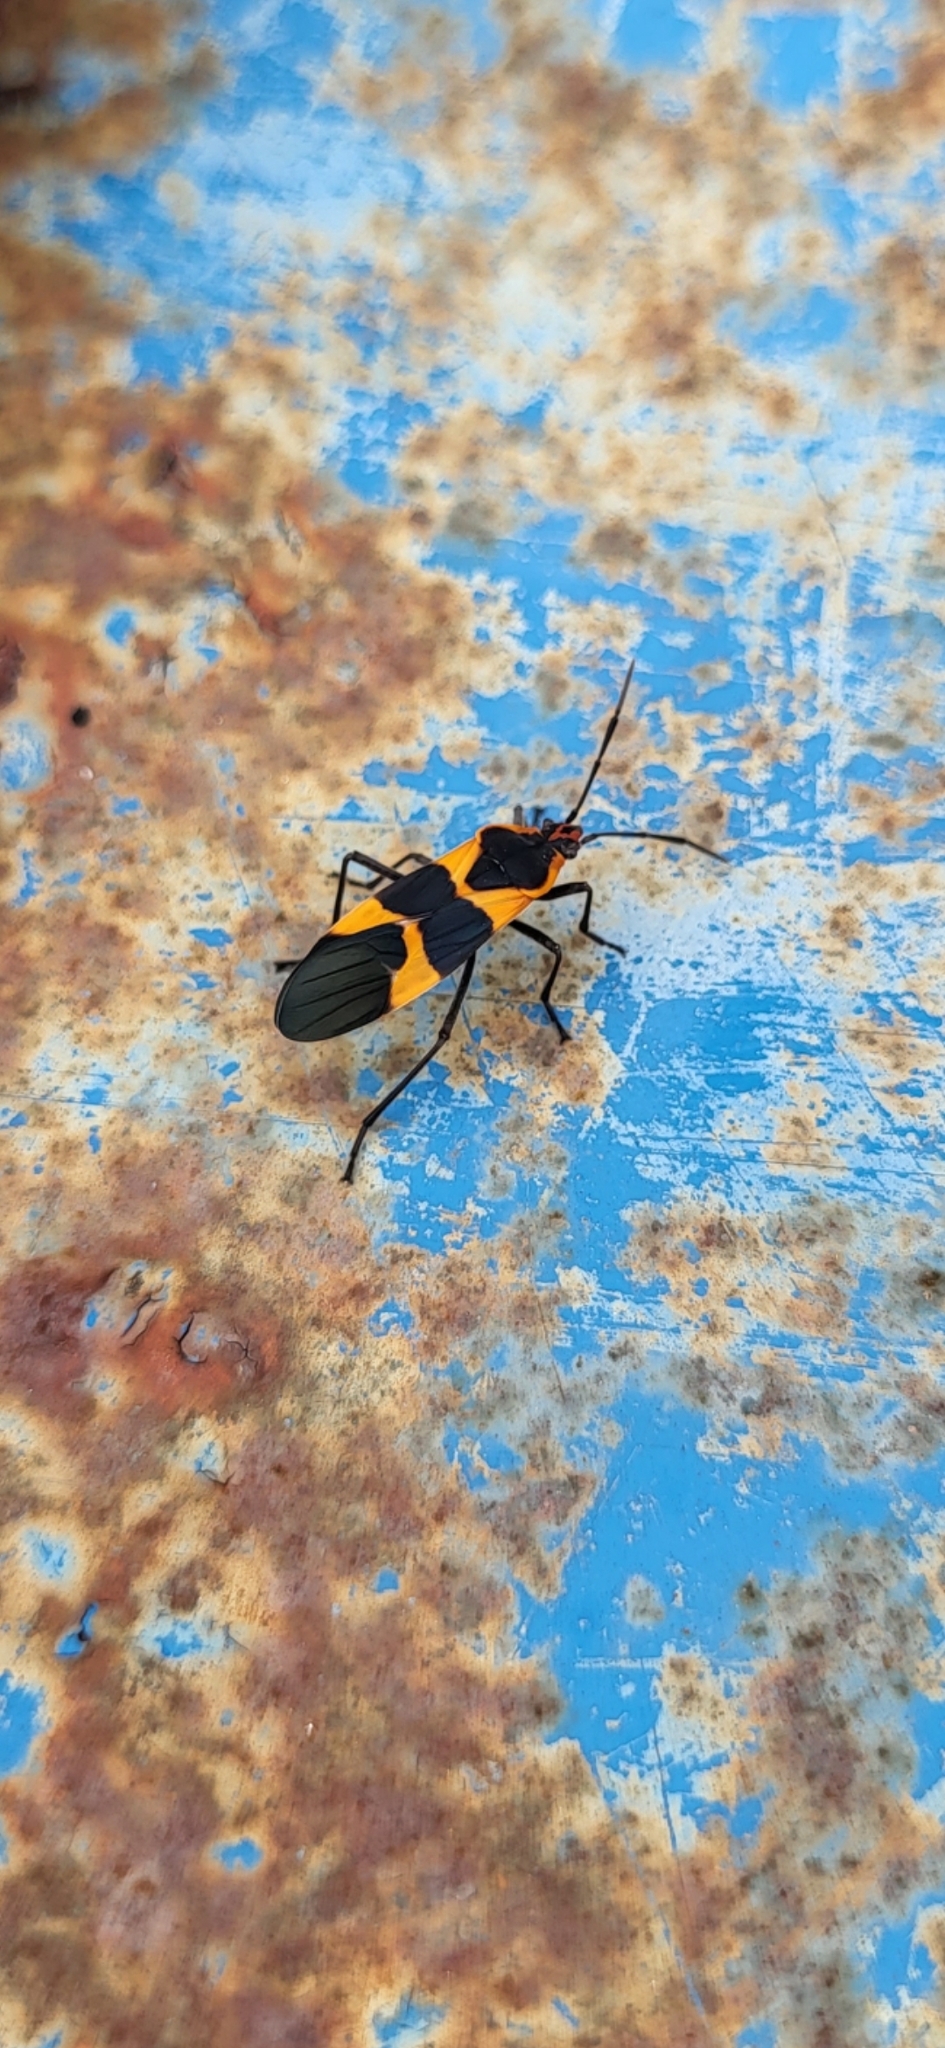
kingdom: Animalia
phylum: Arthropoda
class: Insecta
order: Hemiptera
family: Lygaeidae
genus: Oncopeltus
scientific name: Oncopeltus fasciatus
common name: Large milkweed bug
